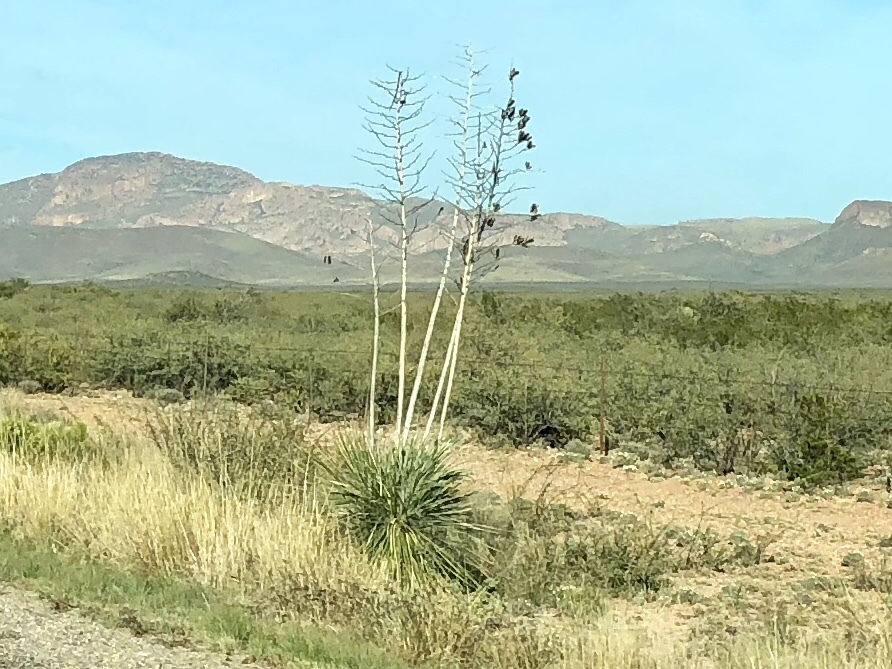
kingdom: Plantae
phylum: Tracheophyta
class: Liliopsida
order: Asparagales
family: Asparagaceae
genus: Yucca
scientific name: Yucca elata
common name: Palmella
